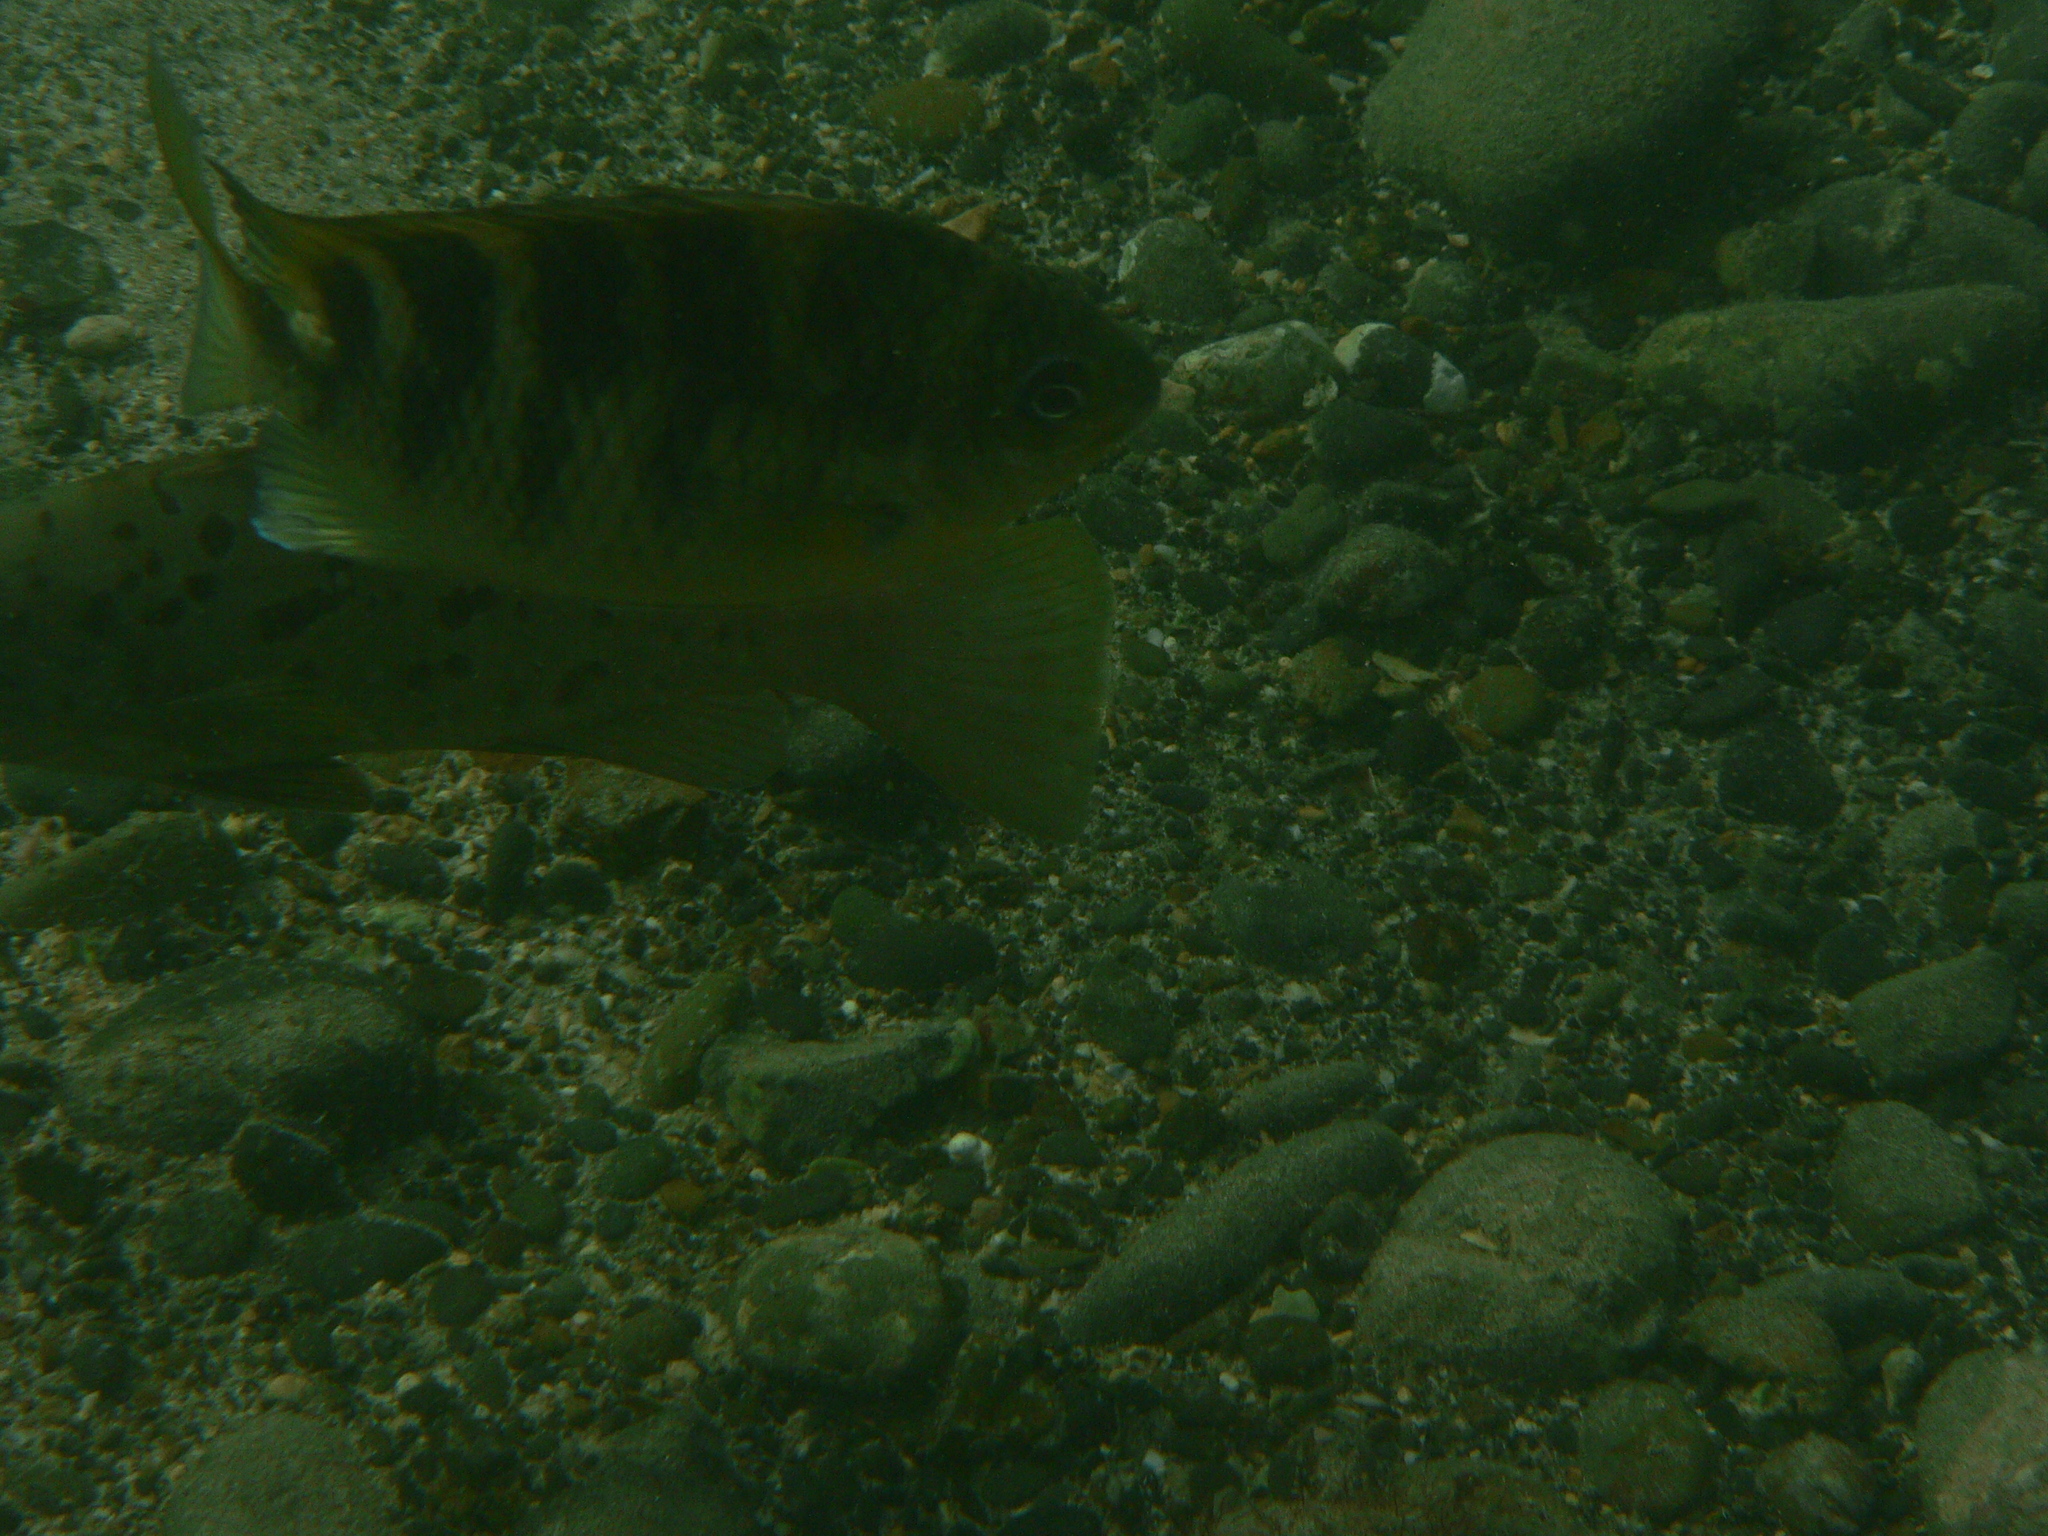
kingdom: Animalia
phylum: Chordata
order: Perciformes
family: Pomacentridae
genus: Abudefduf
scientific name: Abudefduf taurus
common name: Night sergeant
